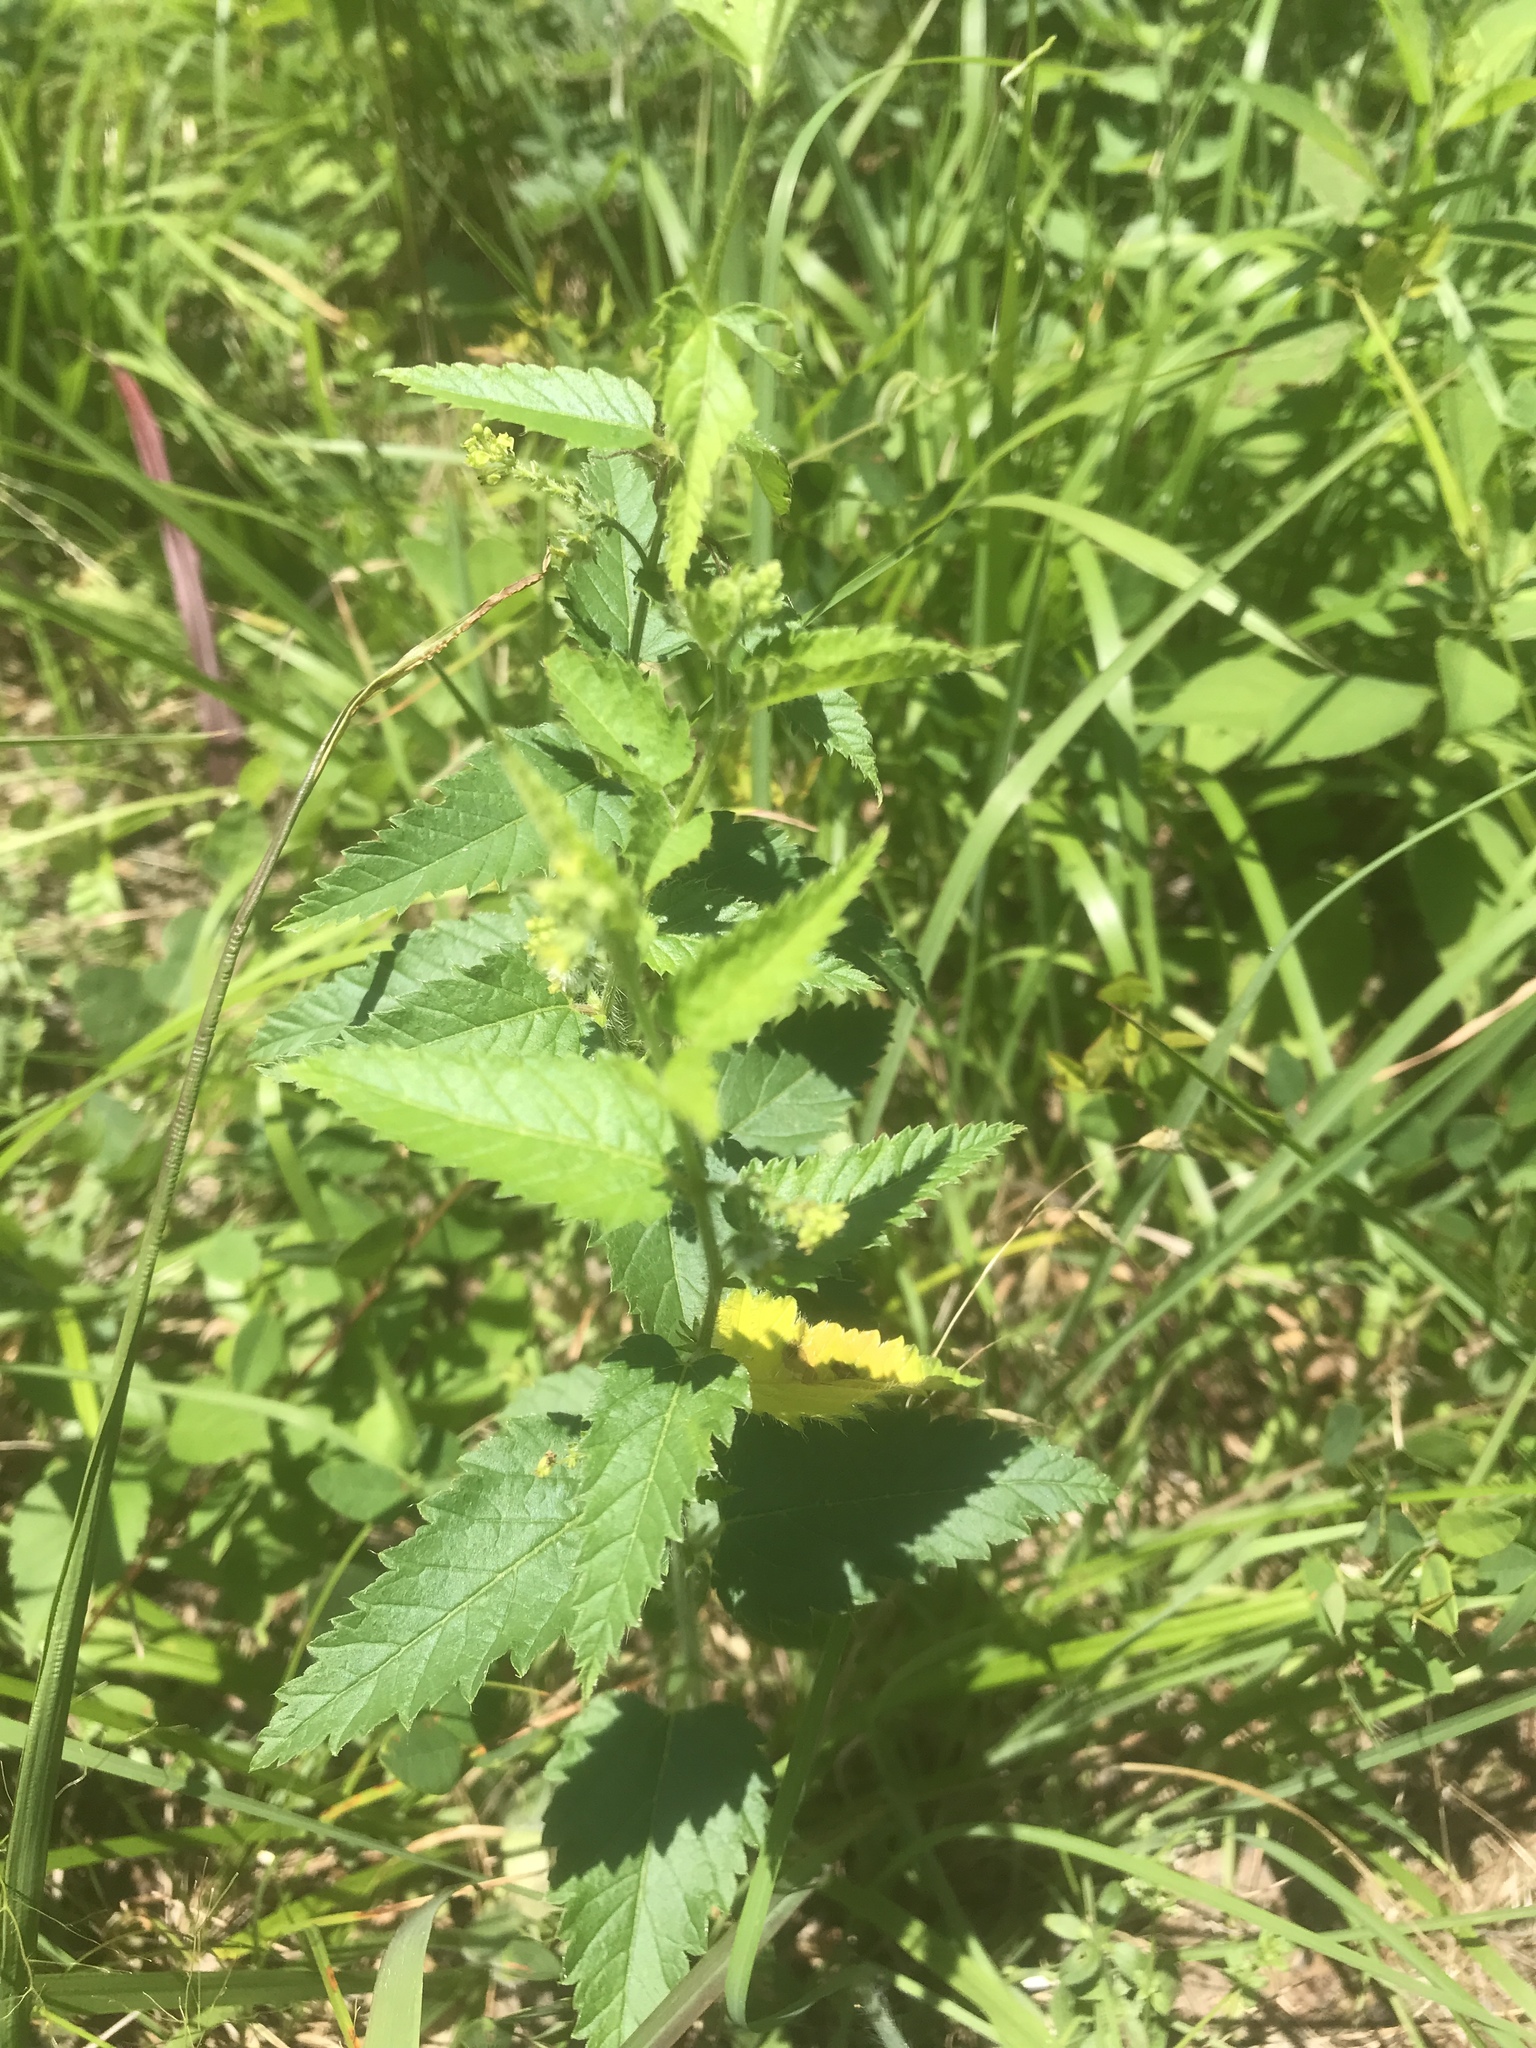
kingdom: Plantae
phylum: Tracheophyta
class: Magnoliopsida
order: Malpighiales
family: Euphorbiaceae
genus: Tragia
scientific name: Tragia urticifolia
